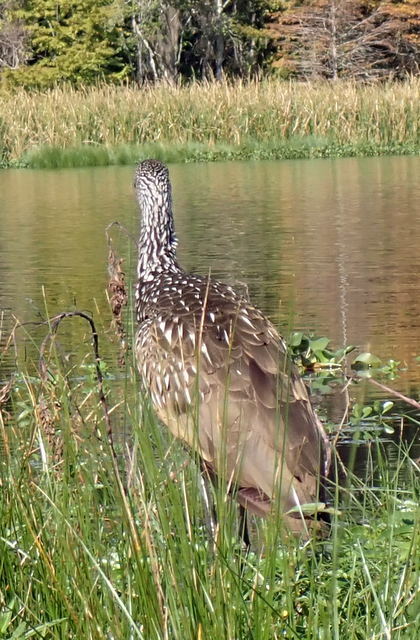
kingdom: Animalia
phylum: Chordata
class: Aves
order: Gruiformes
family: Aramidae
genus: Aramus
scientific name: Aramus guarauna
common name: Limpkin
